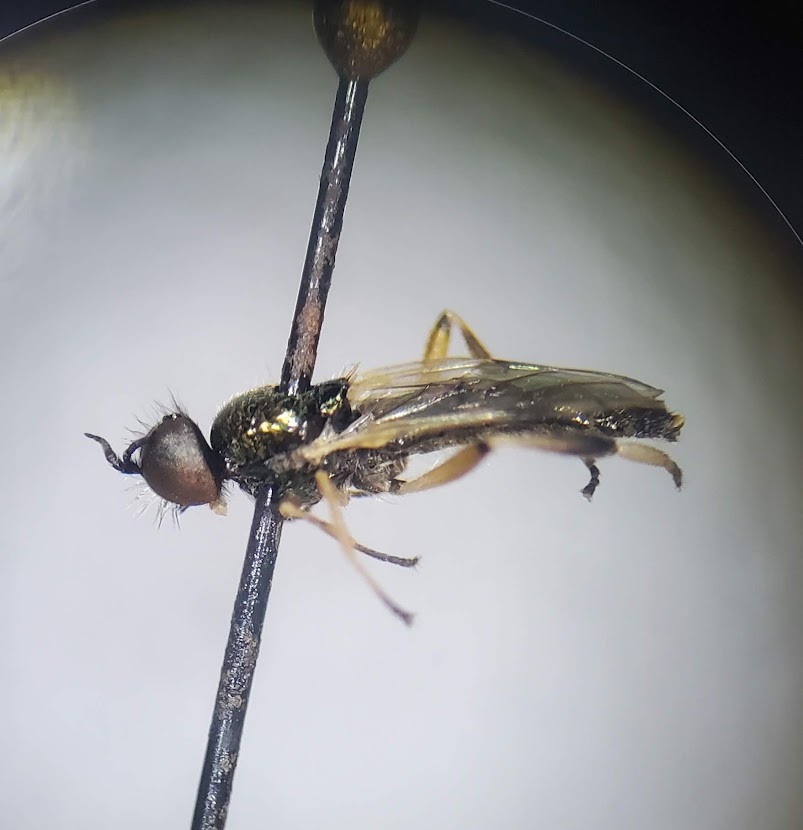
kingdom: Animalia
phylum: Arthropoda
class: Insecta
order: Diptera
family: Stratiomyidae
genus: Actina
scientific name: Actina viridis
